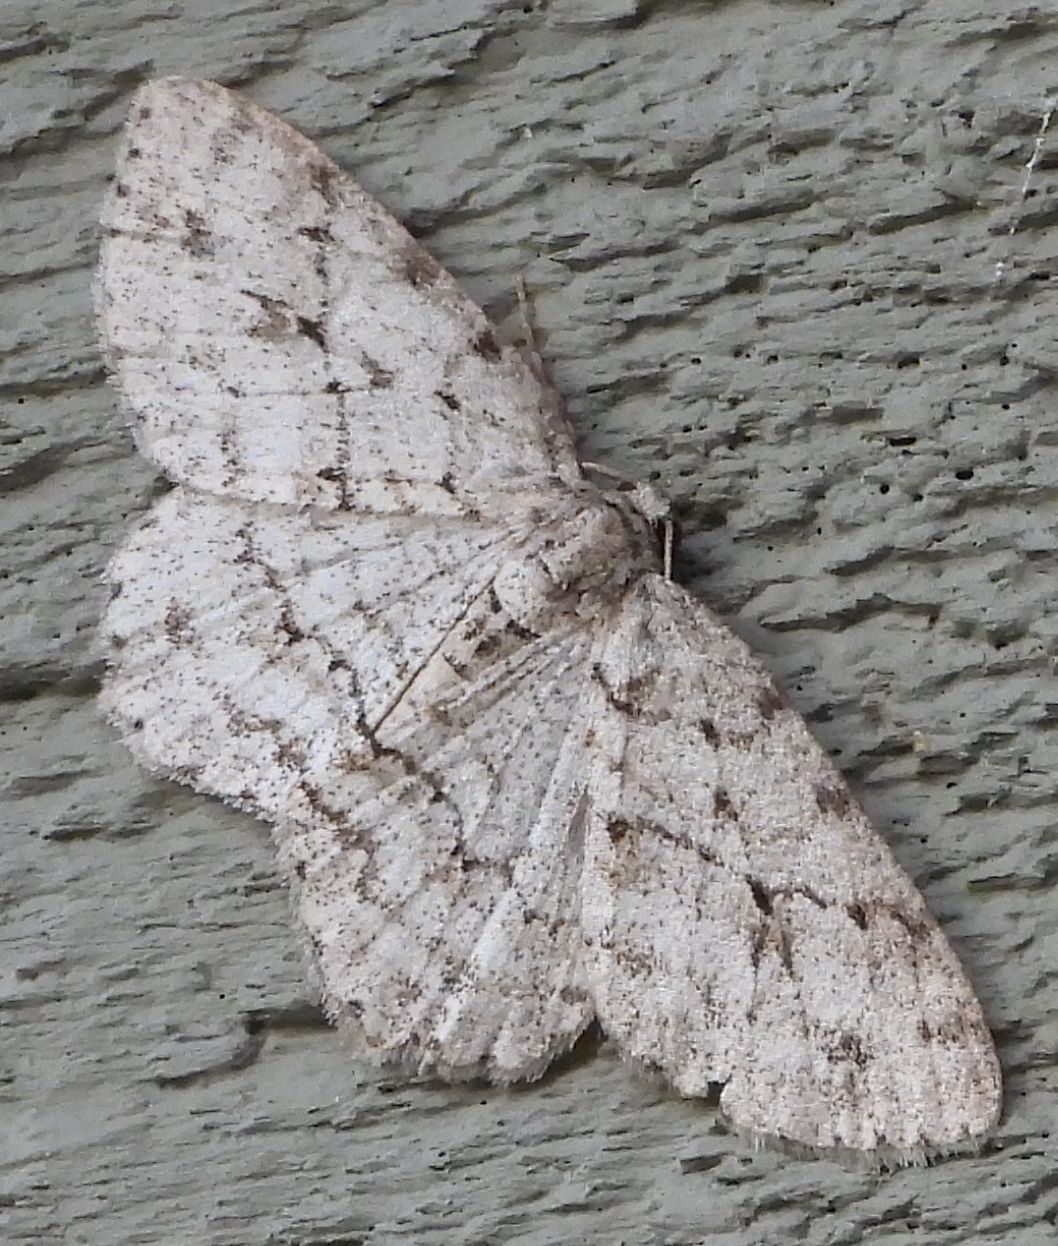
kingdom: Animalia
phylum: Arthropoda
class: Insecta
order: Lepidoptera
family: Geometridae
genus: Ectropis
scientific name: Ectropis crepuscularia
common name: Engrailed
